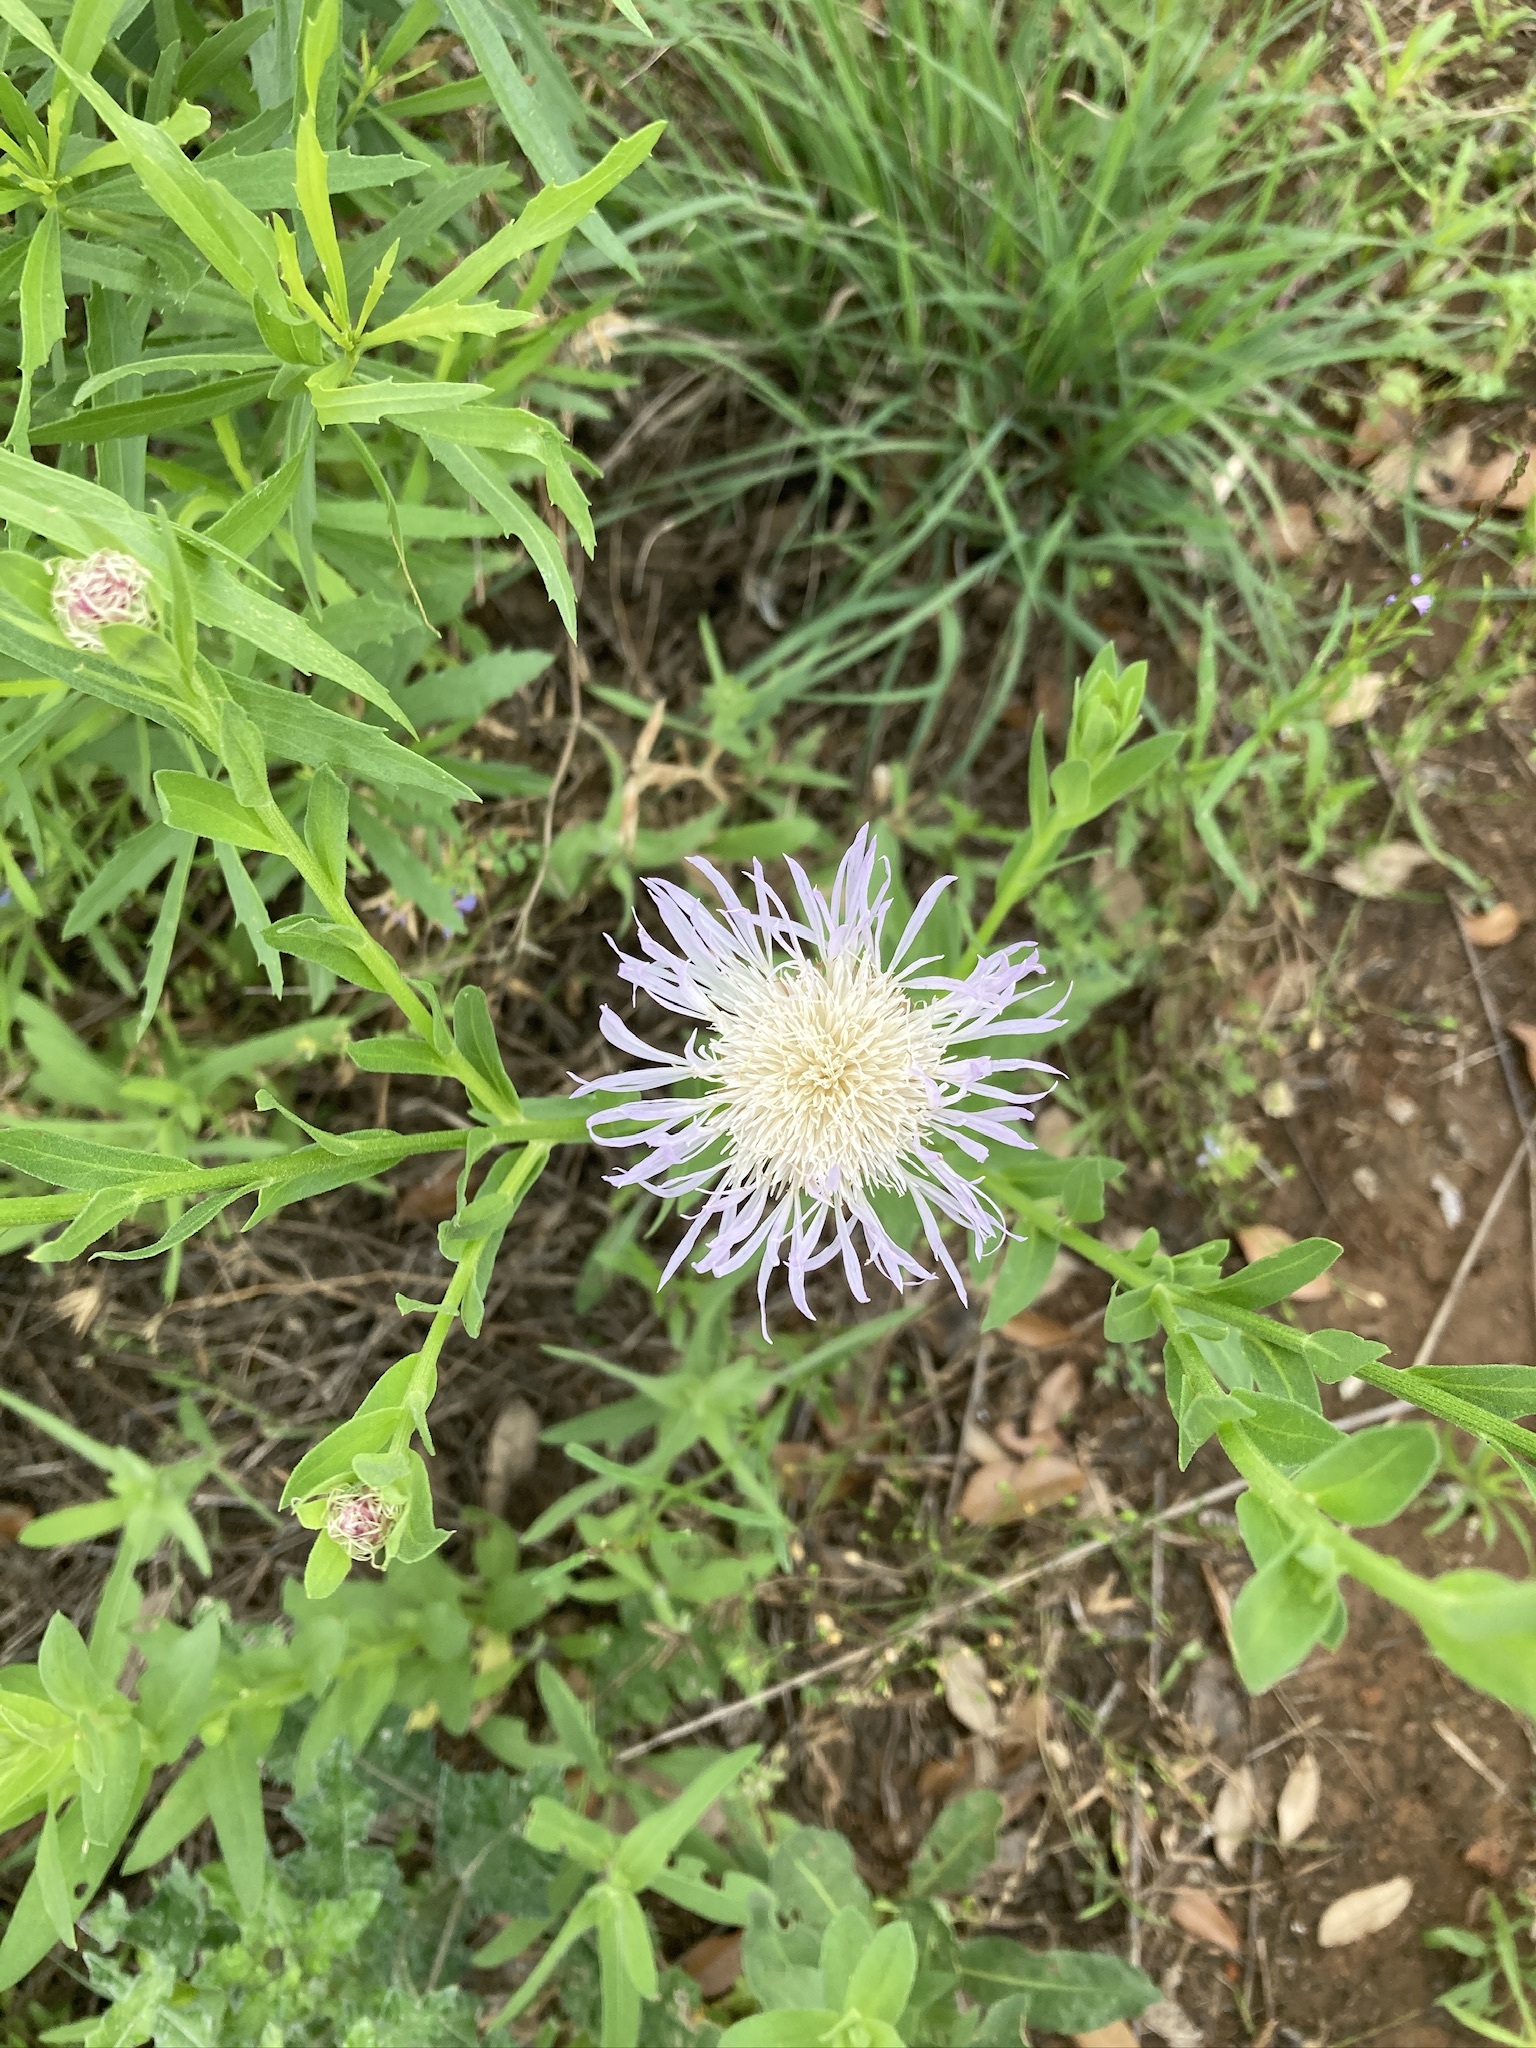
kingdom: Plantae
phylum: Tracheophyta
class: Magnoliopsida
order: Asterales
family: Asteraceae
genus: Plectocephalus
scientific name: Plectocephalus americanus
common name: American basket-flower
